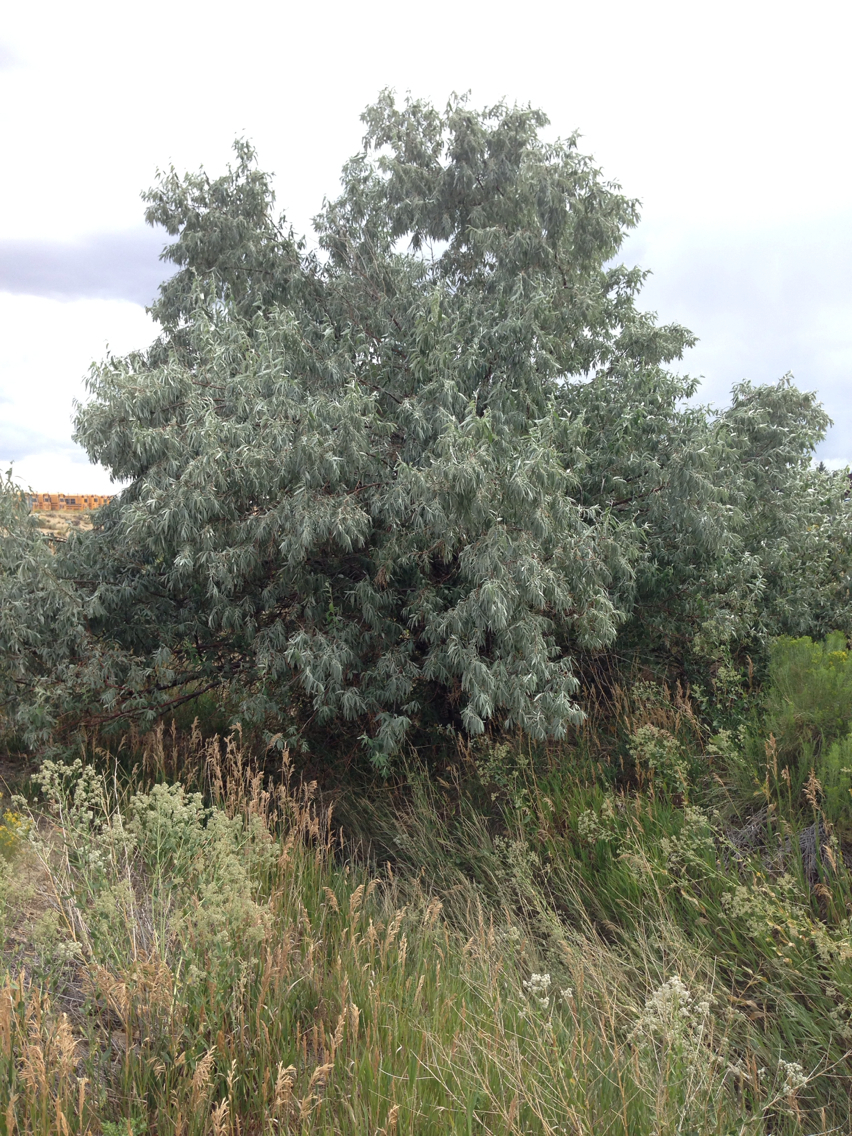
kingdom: Plantae
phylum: Tracheophyta
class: Magnoliopsida
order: Rosales
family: Elaeagnaceae
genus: Elaeagnus
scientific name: Elaeagnus angustifolia
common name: Russian olive
